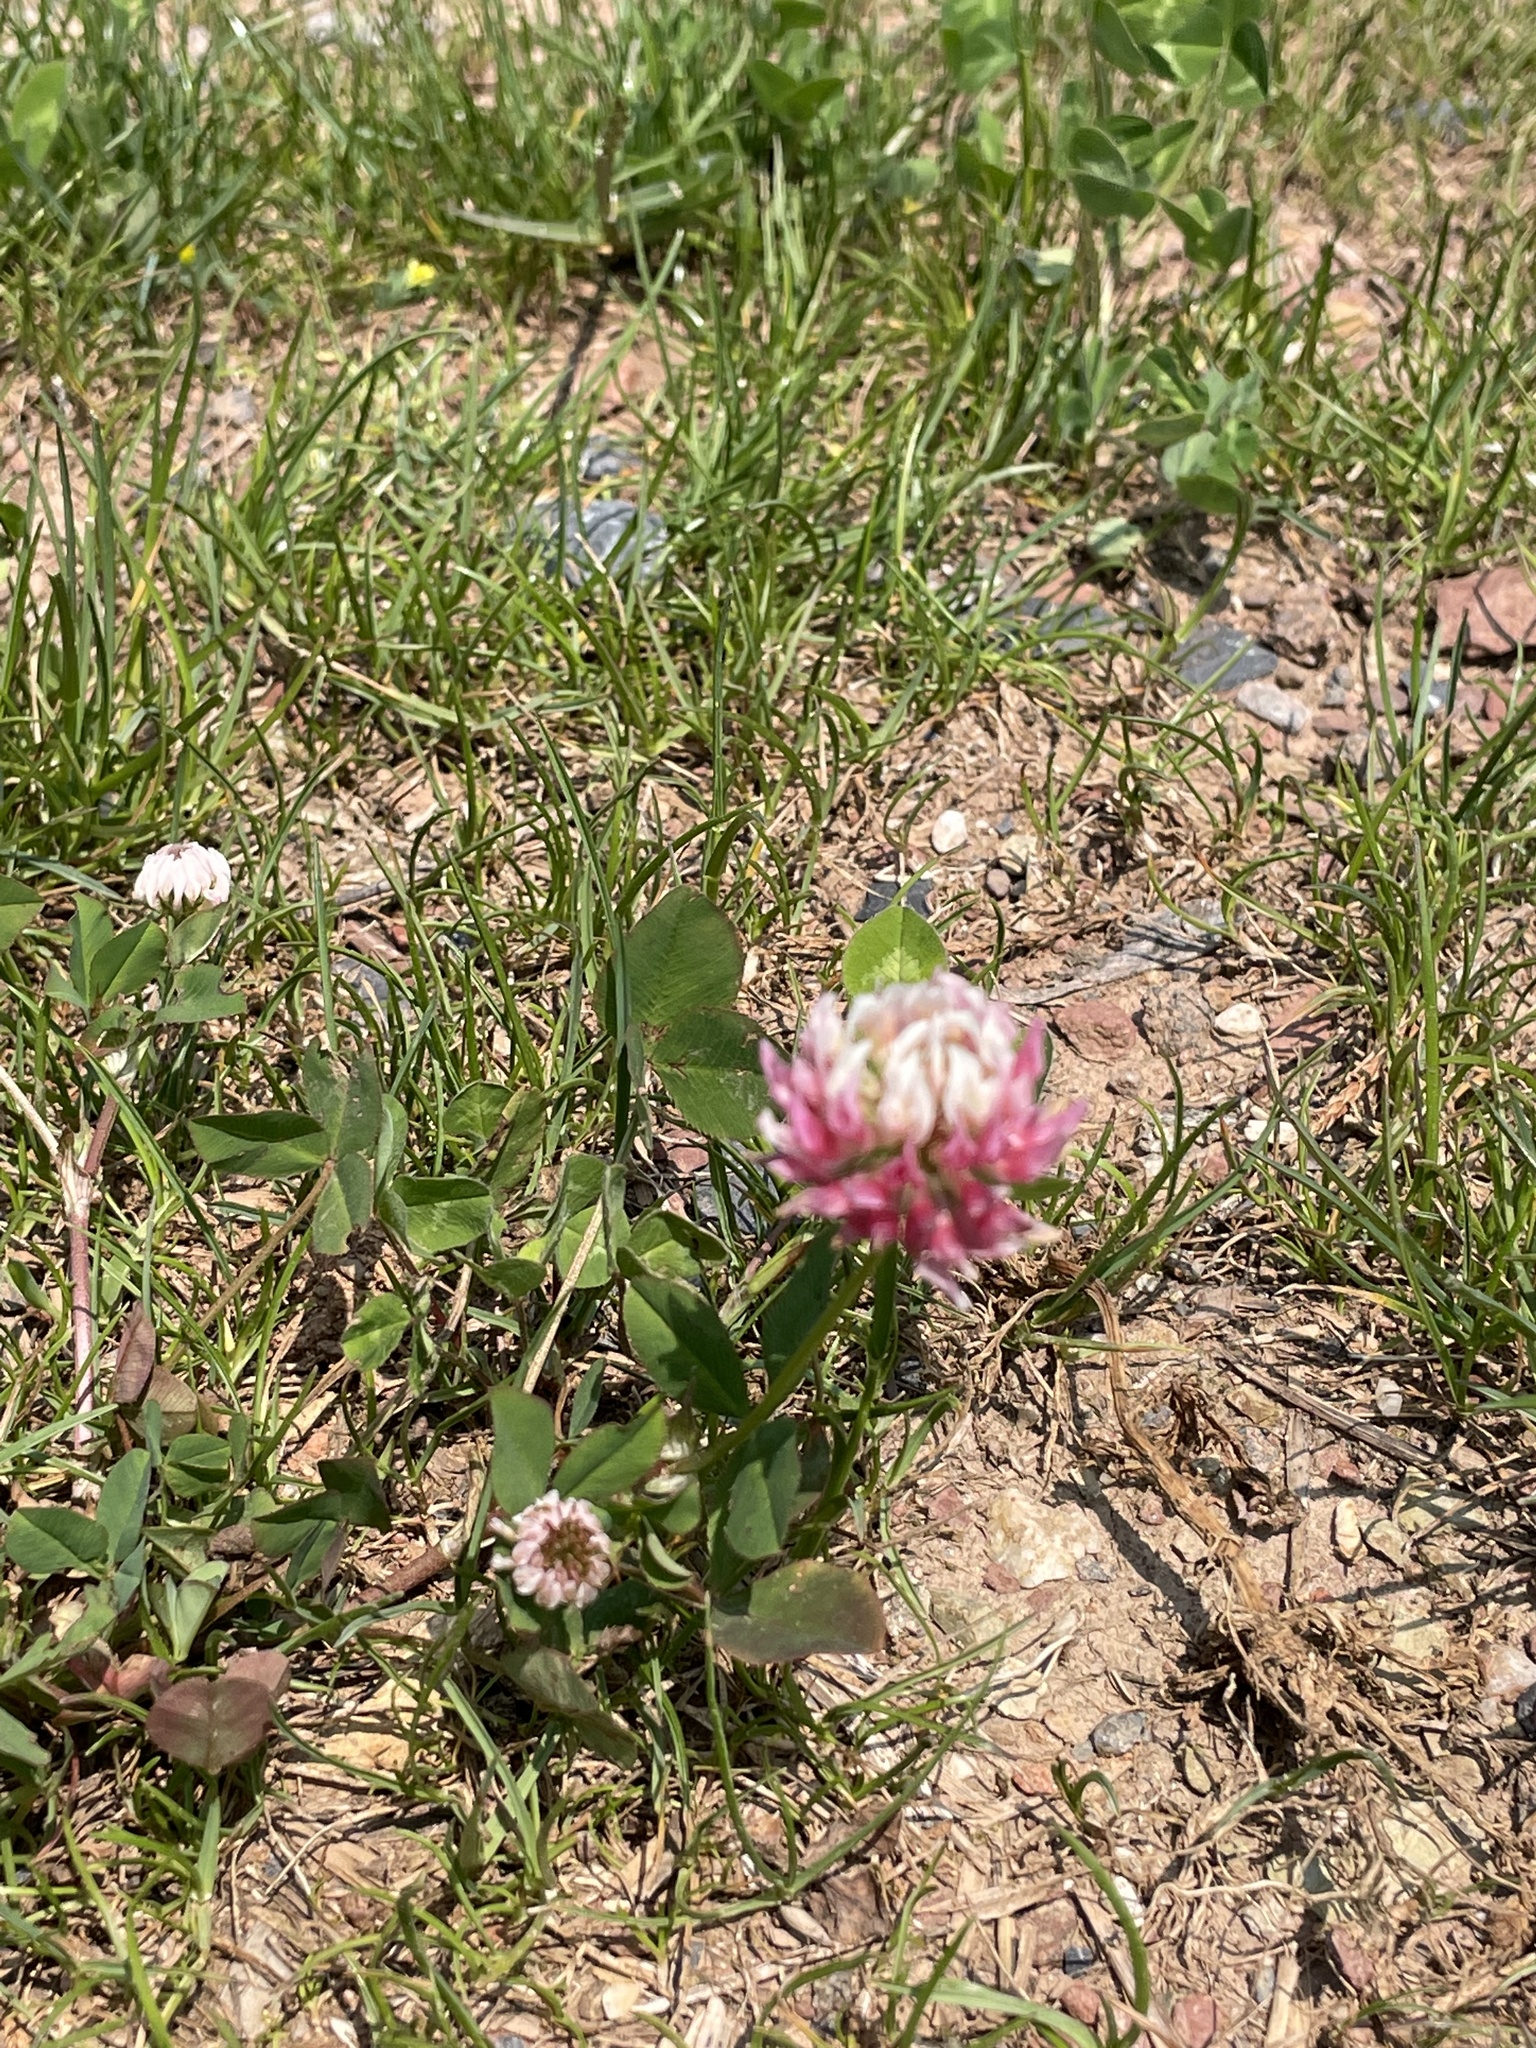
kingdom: Plantae
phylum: Tracheophyta
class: Magnoliopsida
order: Fabales
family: Fabaceae
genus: Trifolium
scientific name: Trifolium hybridum
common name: Alsike clover
